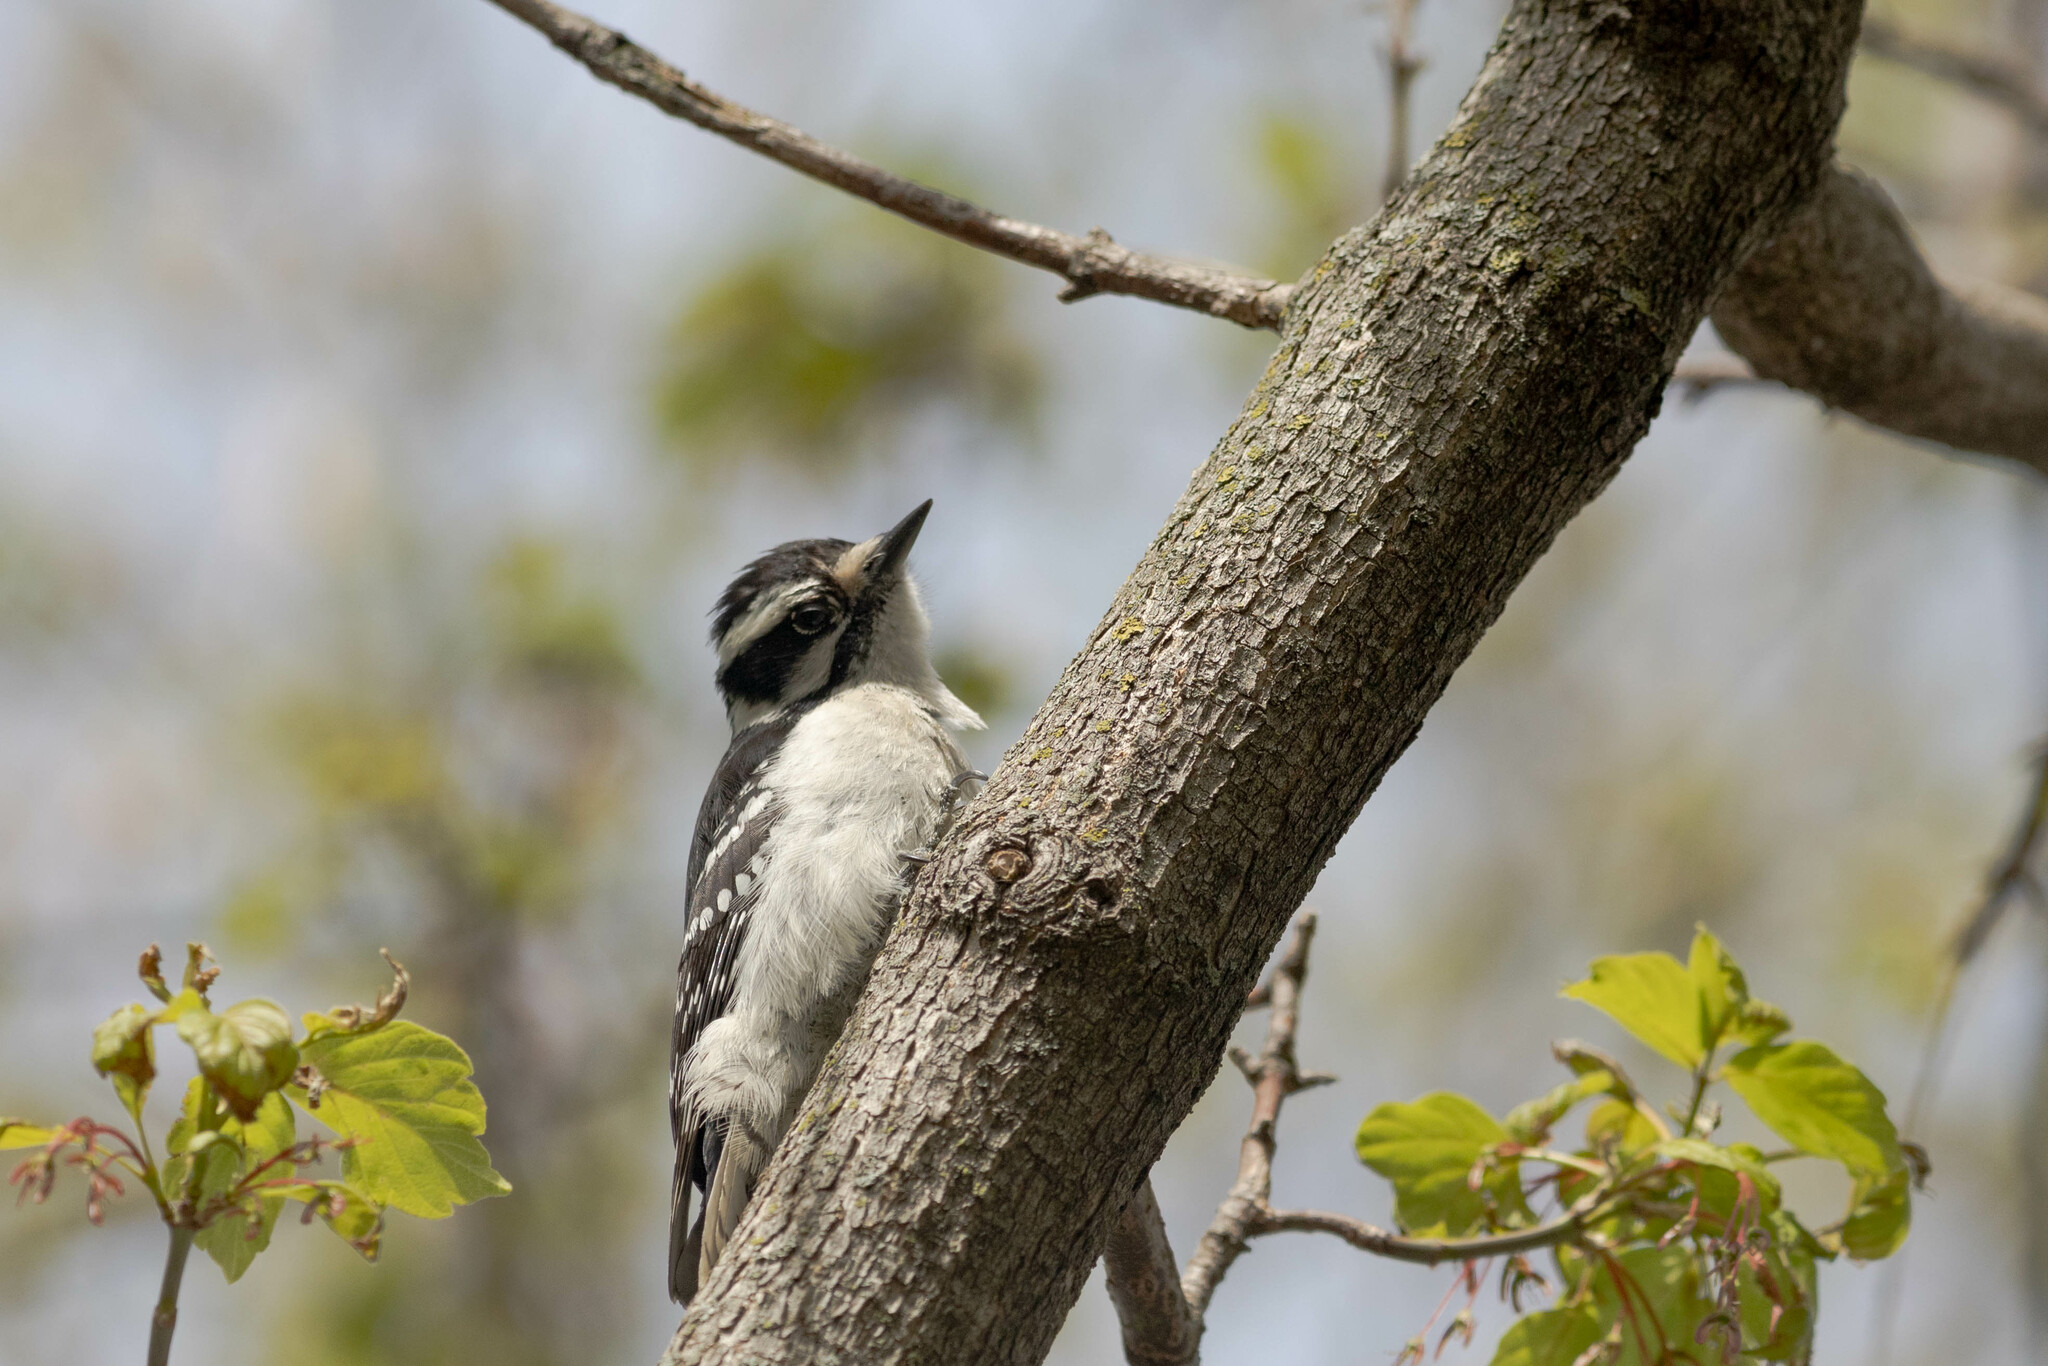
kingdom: Animalia
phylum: Chordata
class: Aves
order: Piciformes
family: Picidae
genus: Dryobates
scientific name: Dryobates pubescens
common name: Downy woodpecker
